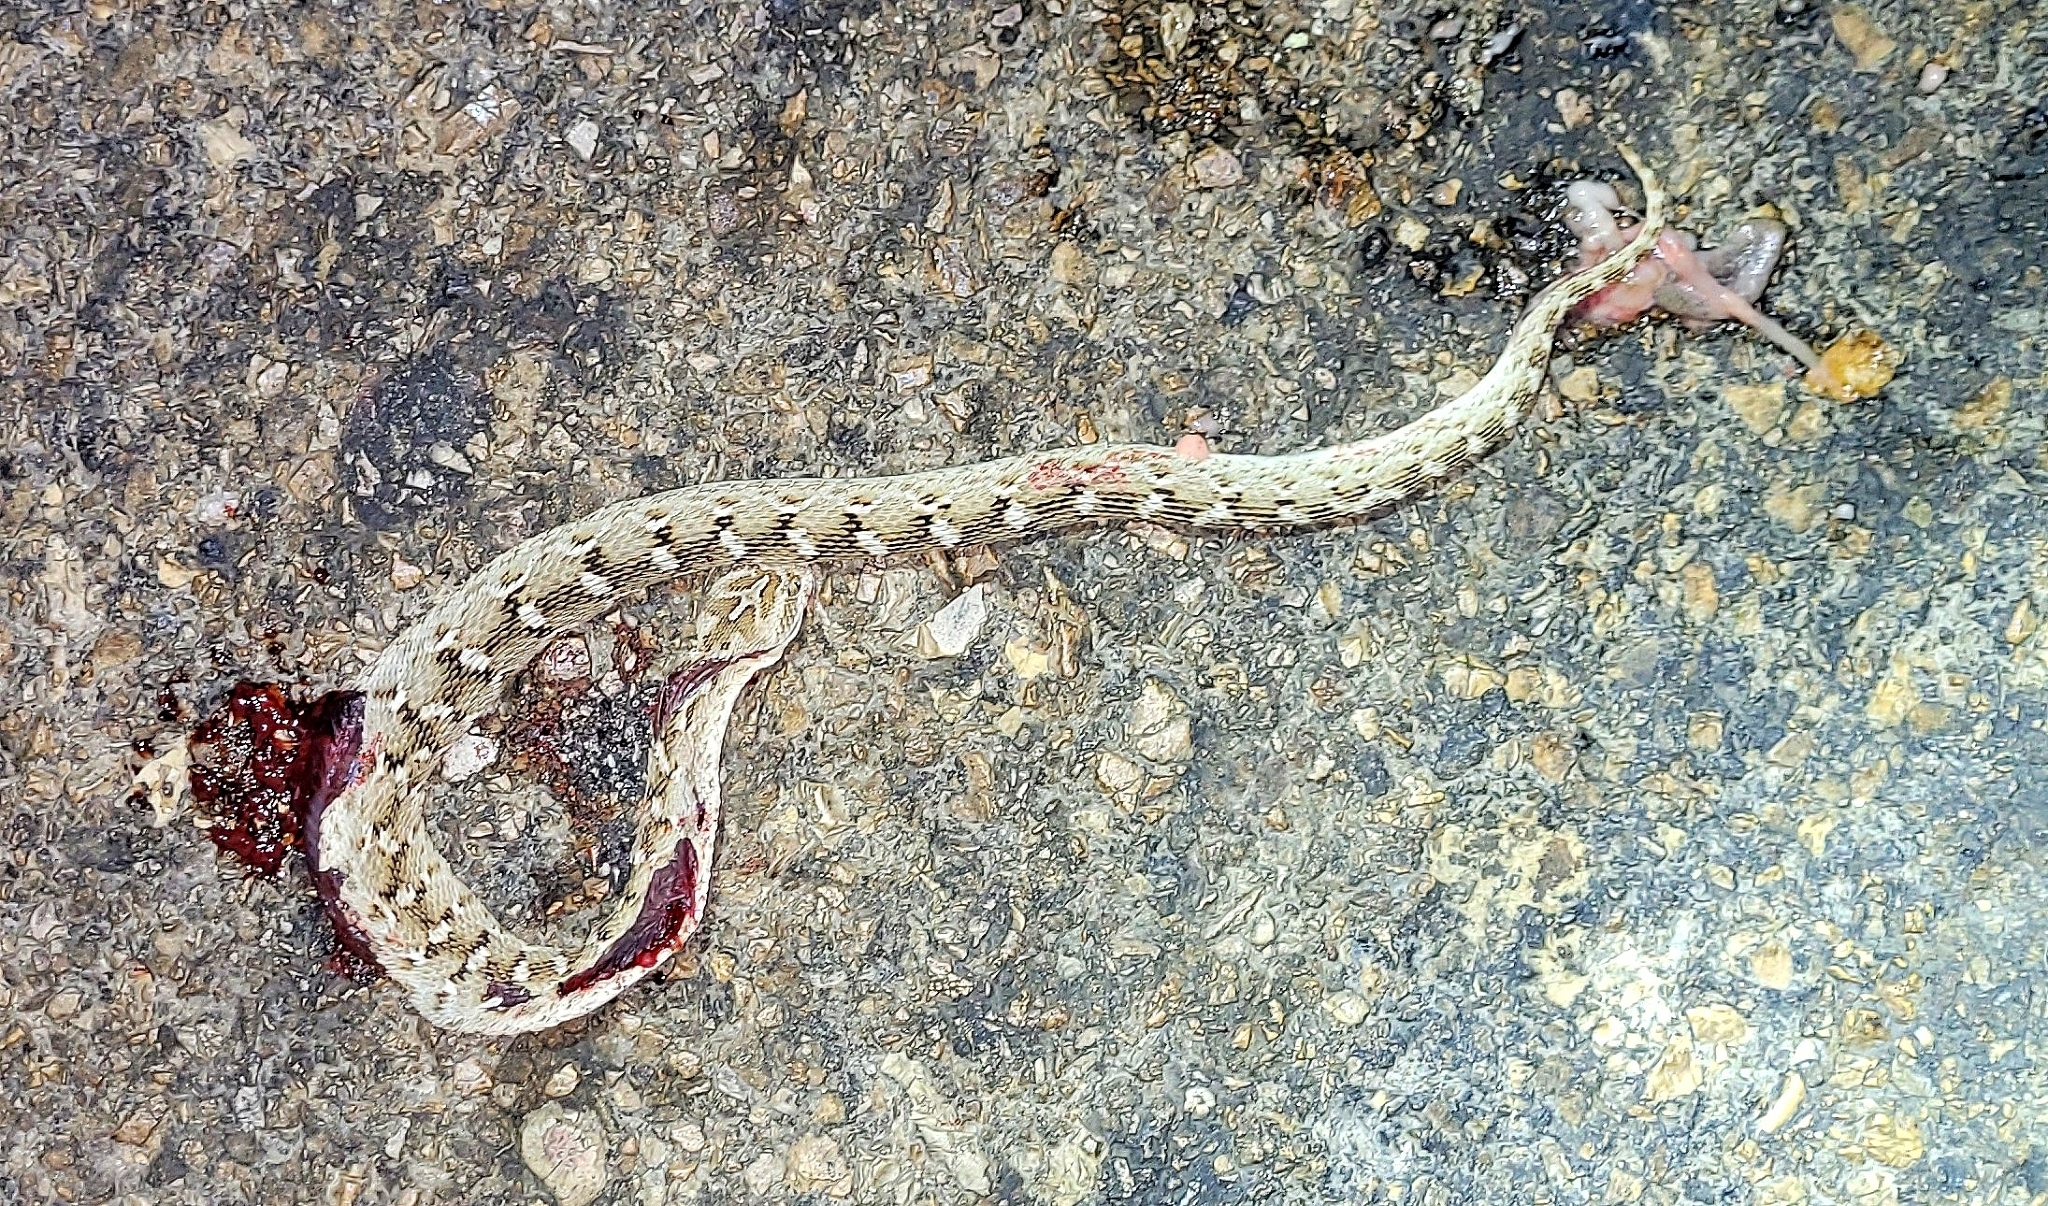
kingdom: Animalia
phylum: Chordata
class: Squamata
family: Viperidae
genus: Echis
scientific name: Echis carinatus
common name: Saw-scaled viper
